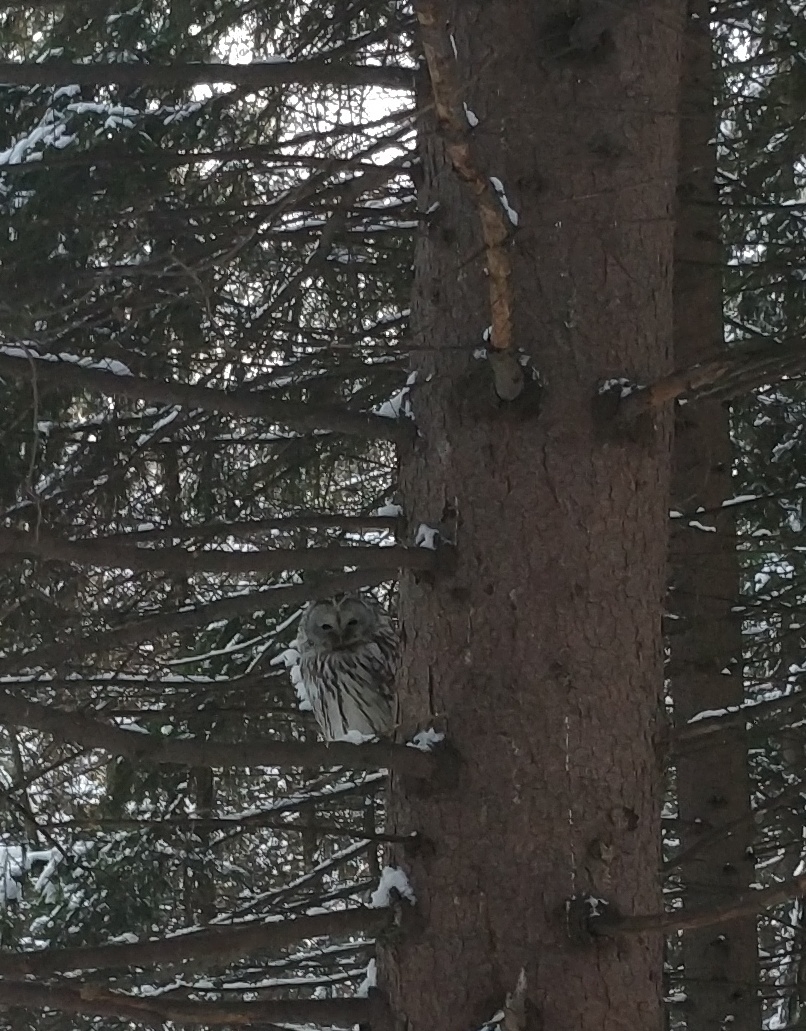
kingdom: Animalia
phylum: Chordata
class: Aves
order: Strigiformes
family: Strigidae
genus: Strix
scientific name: Strix uralensis
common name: Ural owl
